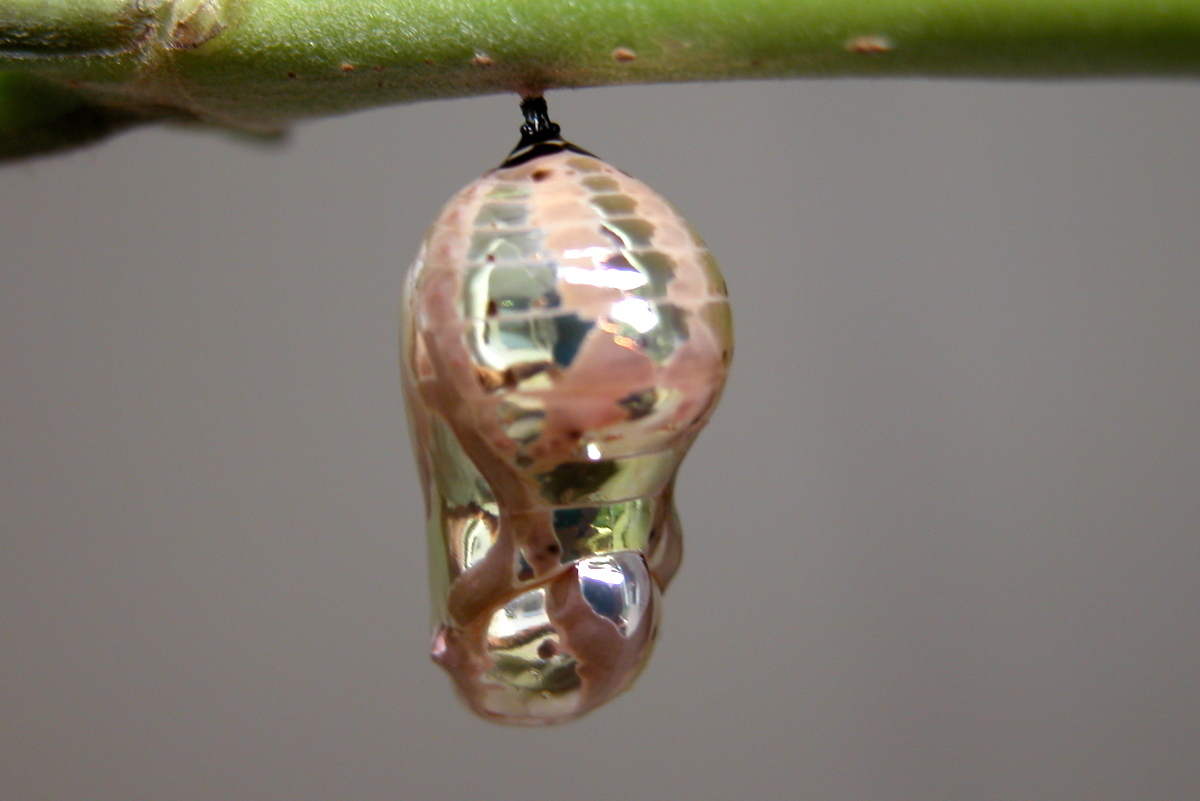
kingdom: Animalia
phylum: Arthropoda
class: Insecta
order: Lepidoptera
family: Nymphalidae
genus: Euploea
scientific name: Euploea core
